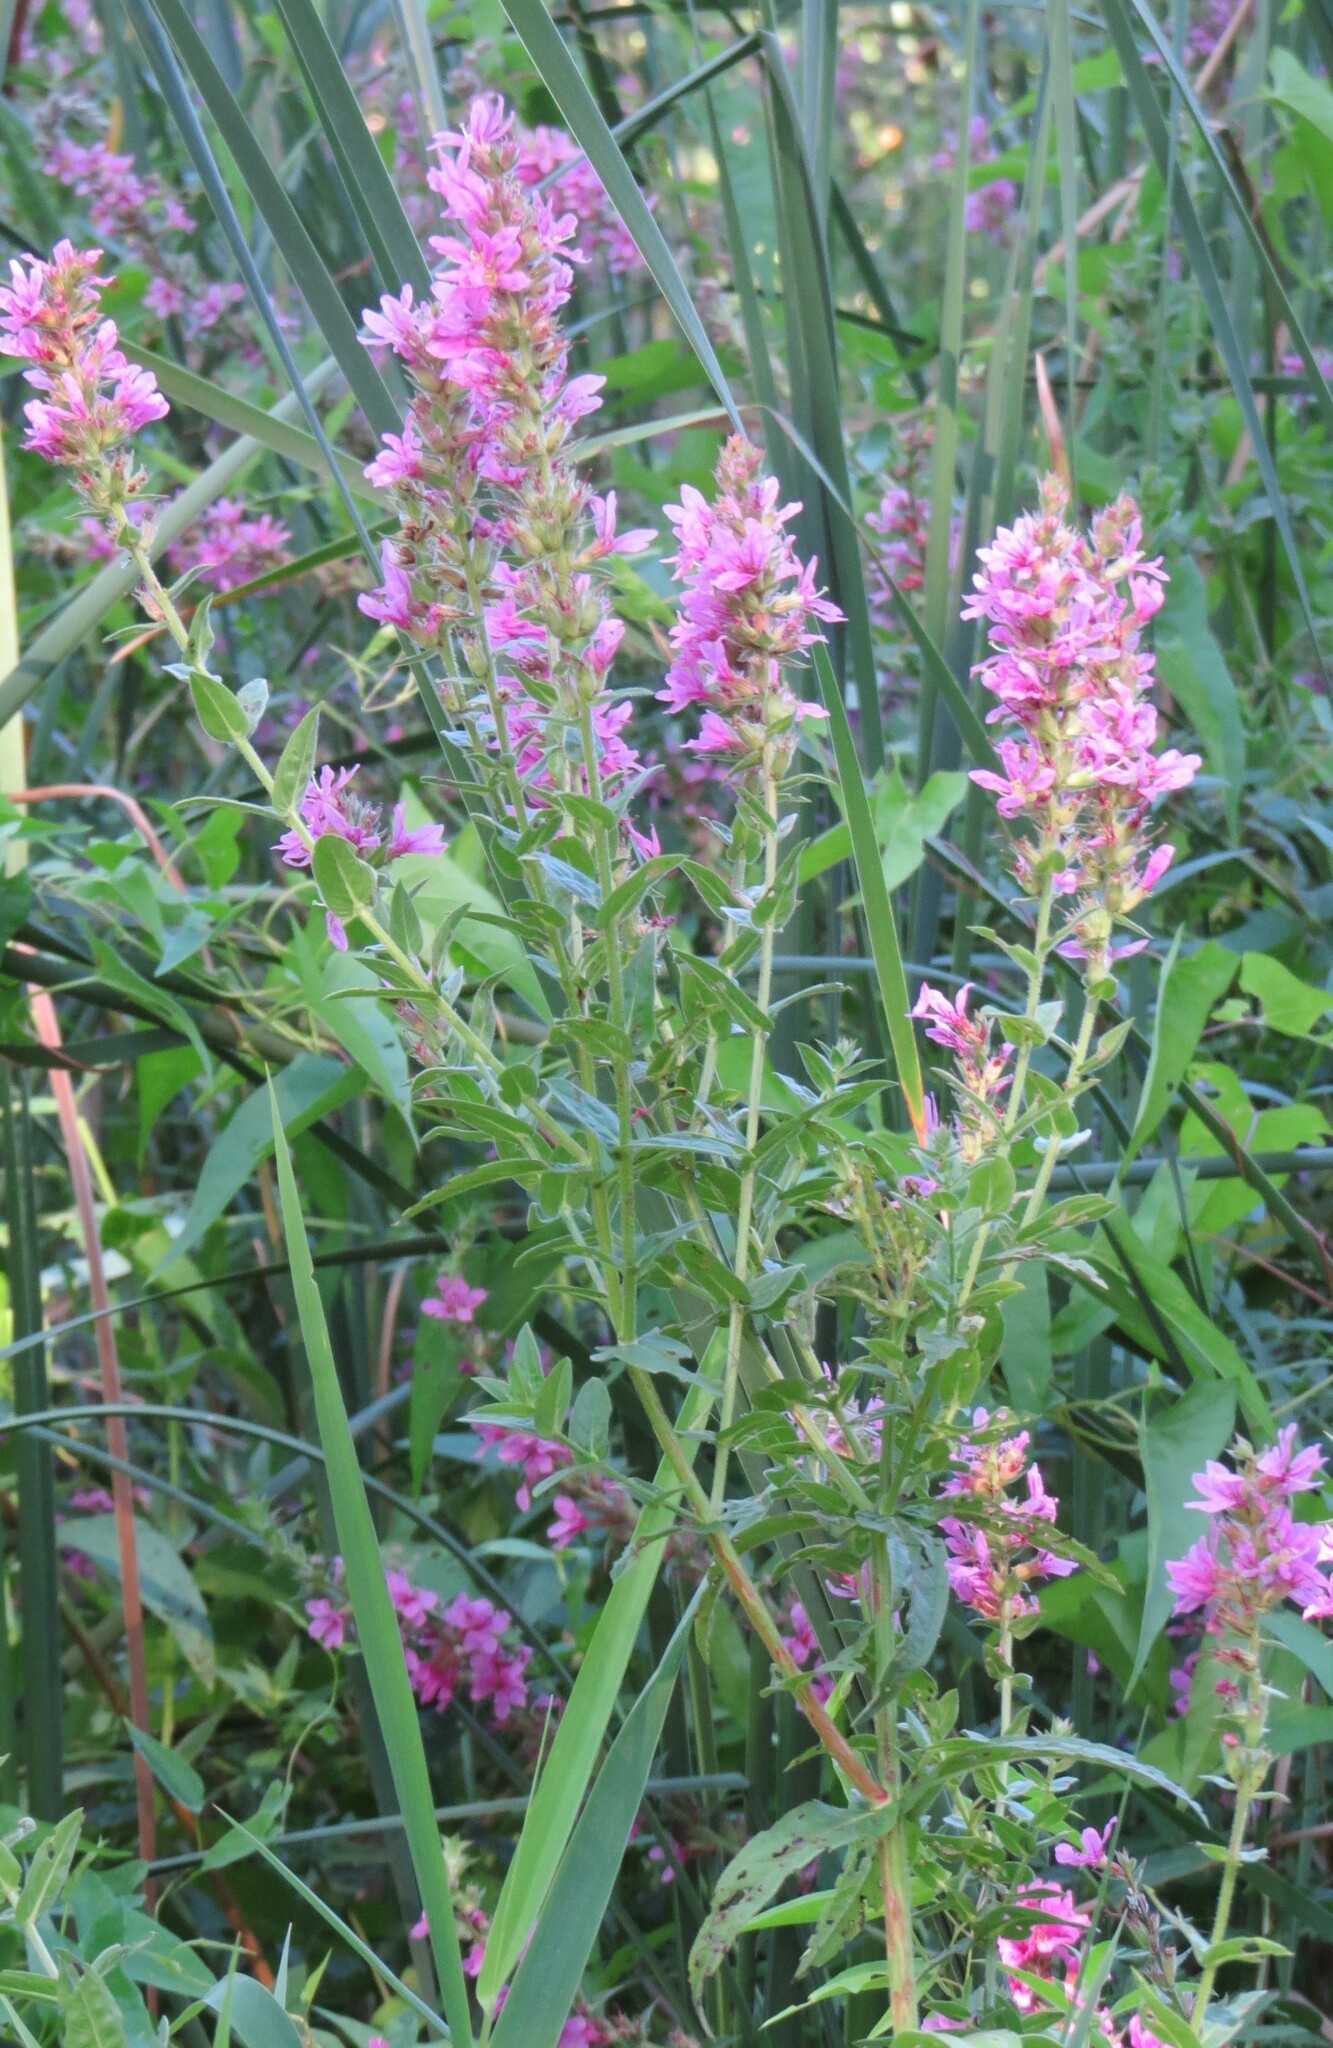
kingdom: Plantae
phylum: Tracheophyta
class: Magnoliopsida
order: Myrtales
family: Lythraceae
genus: Lythrum
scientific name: Lythrum salicaria
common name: Purple loosestrife
